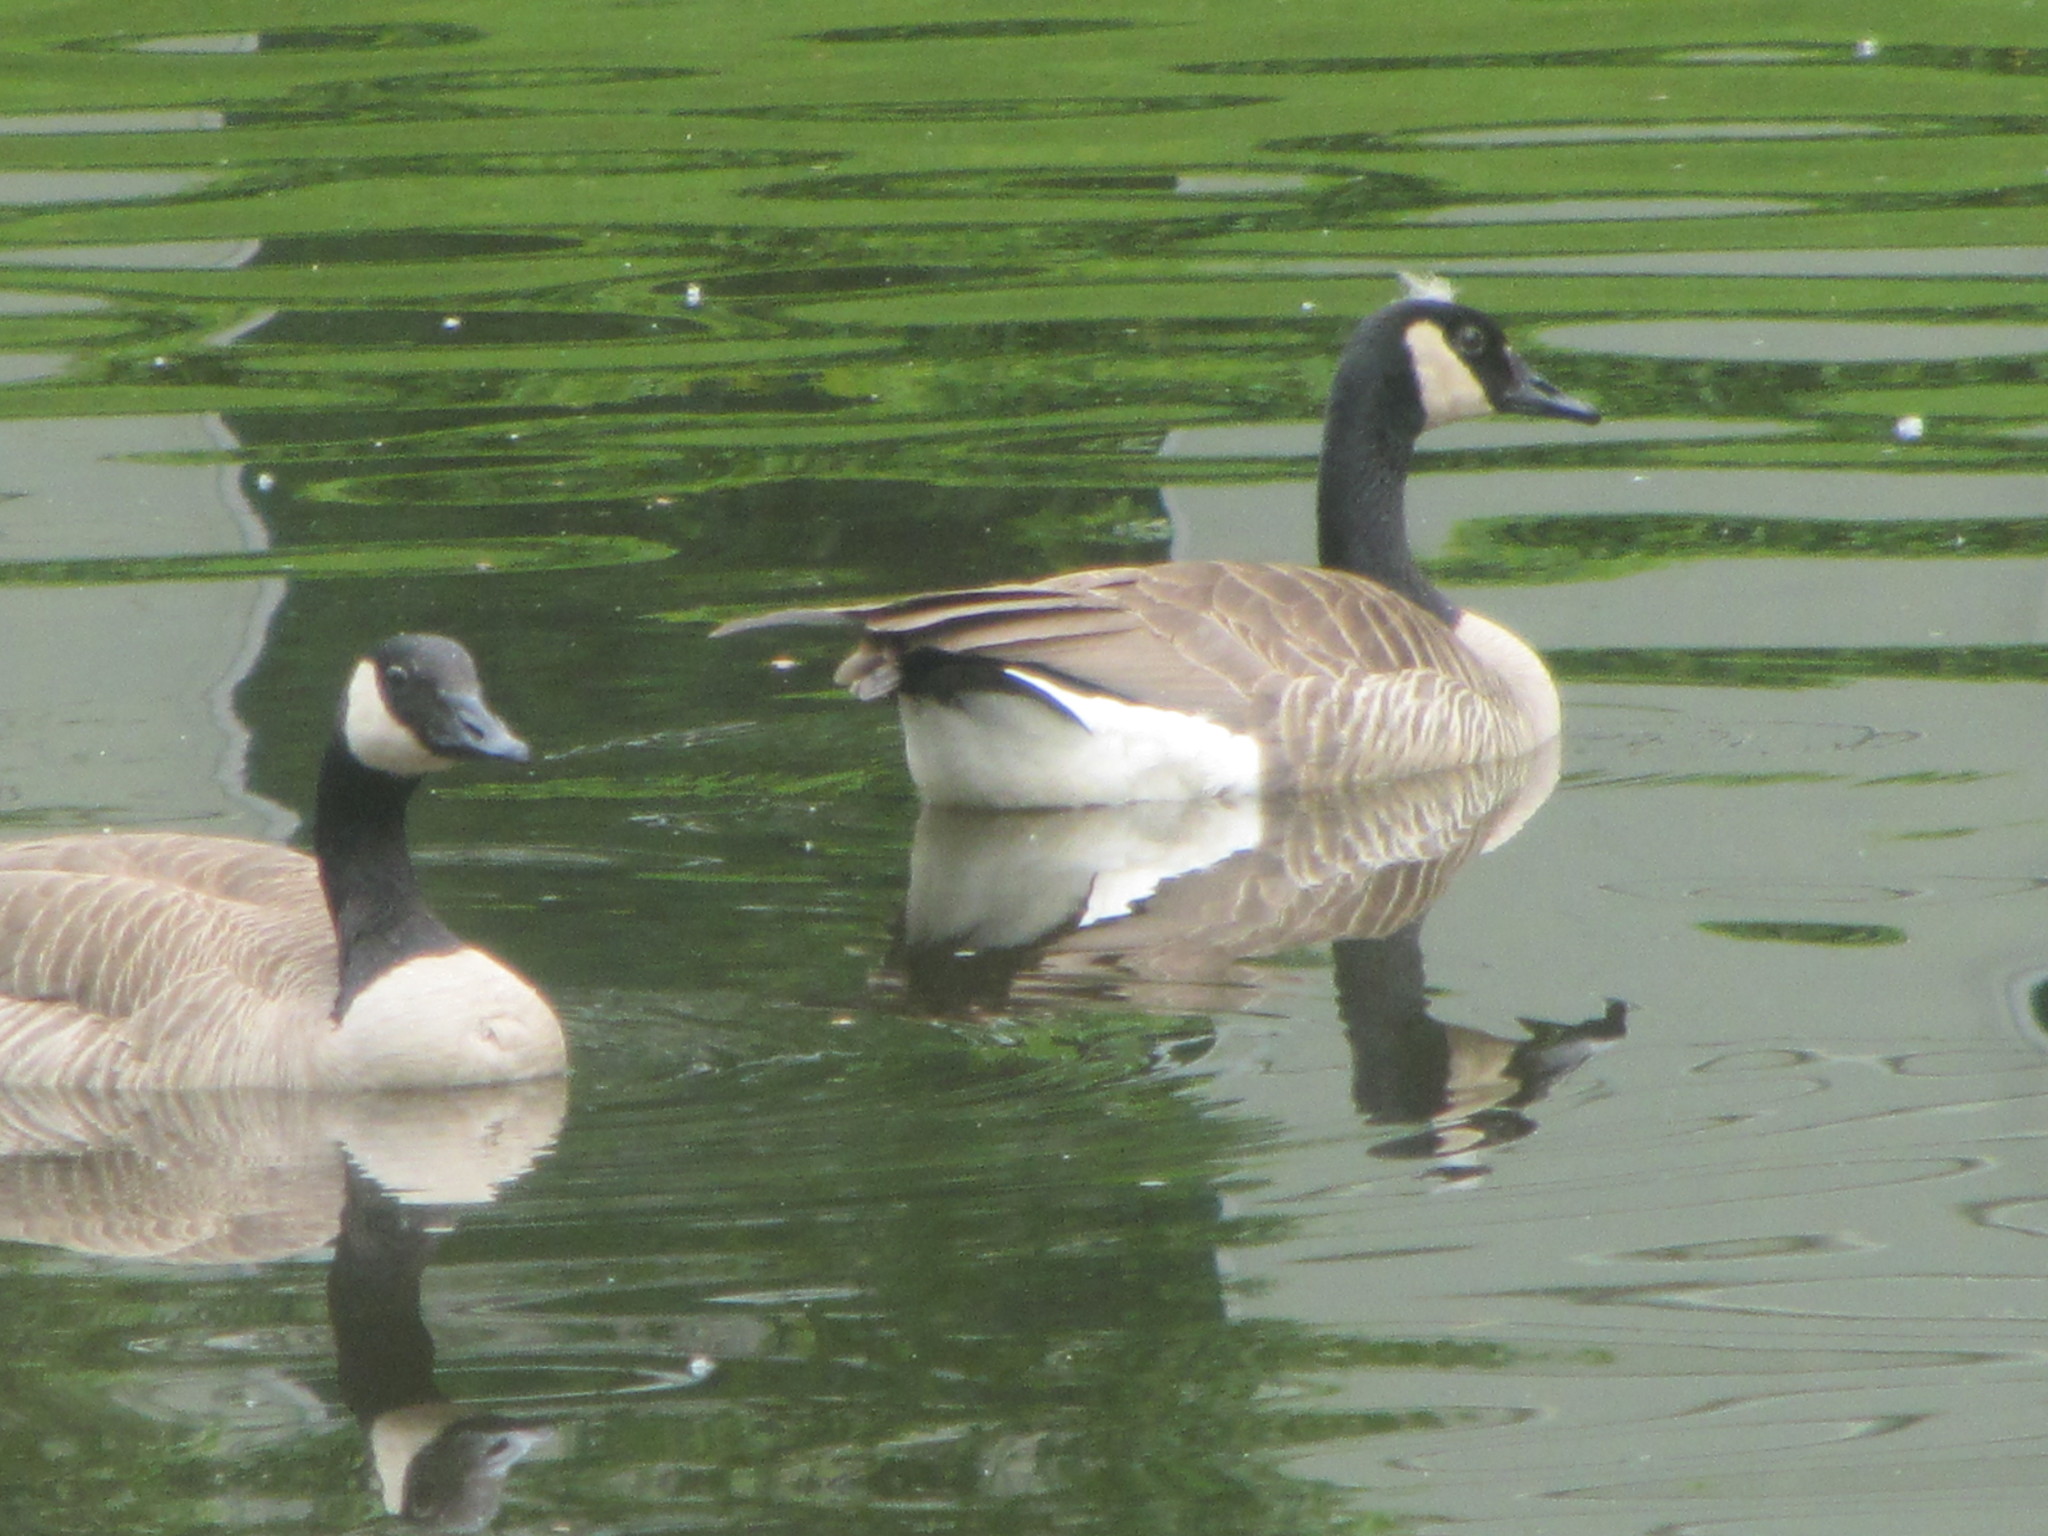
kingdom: Animalia
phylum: Chordata
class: Aves
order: Anseriformes
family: Anatidae
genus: Branta
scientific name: Branta canadensis
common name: Canada goose
